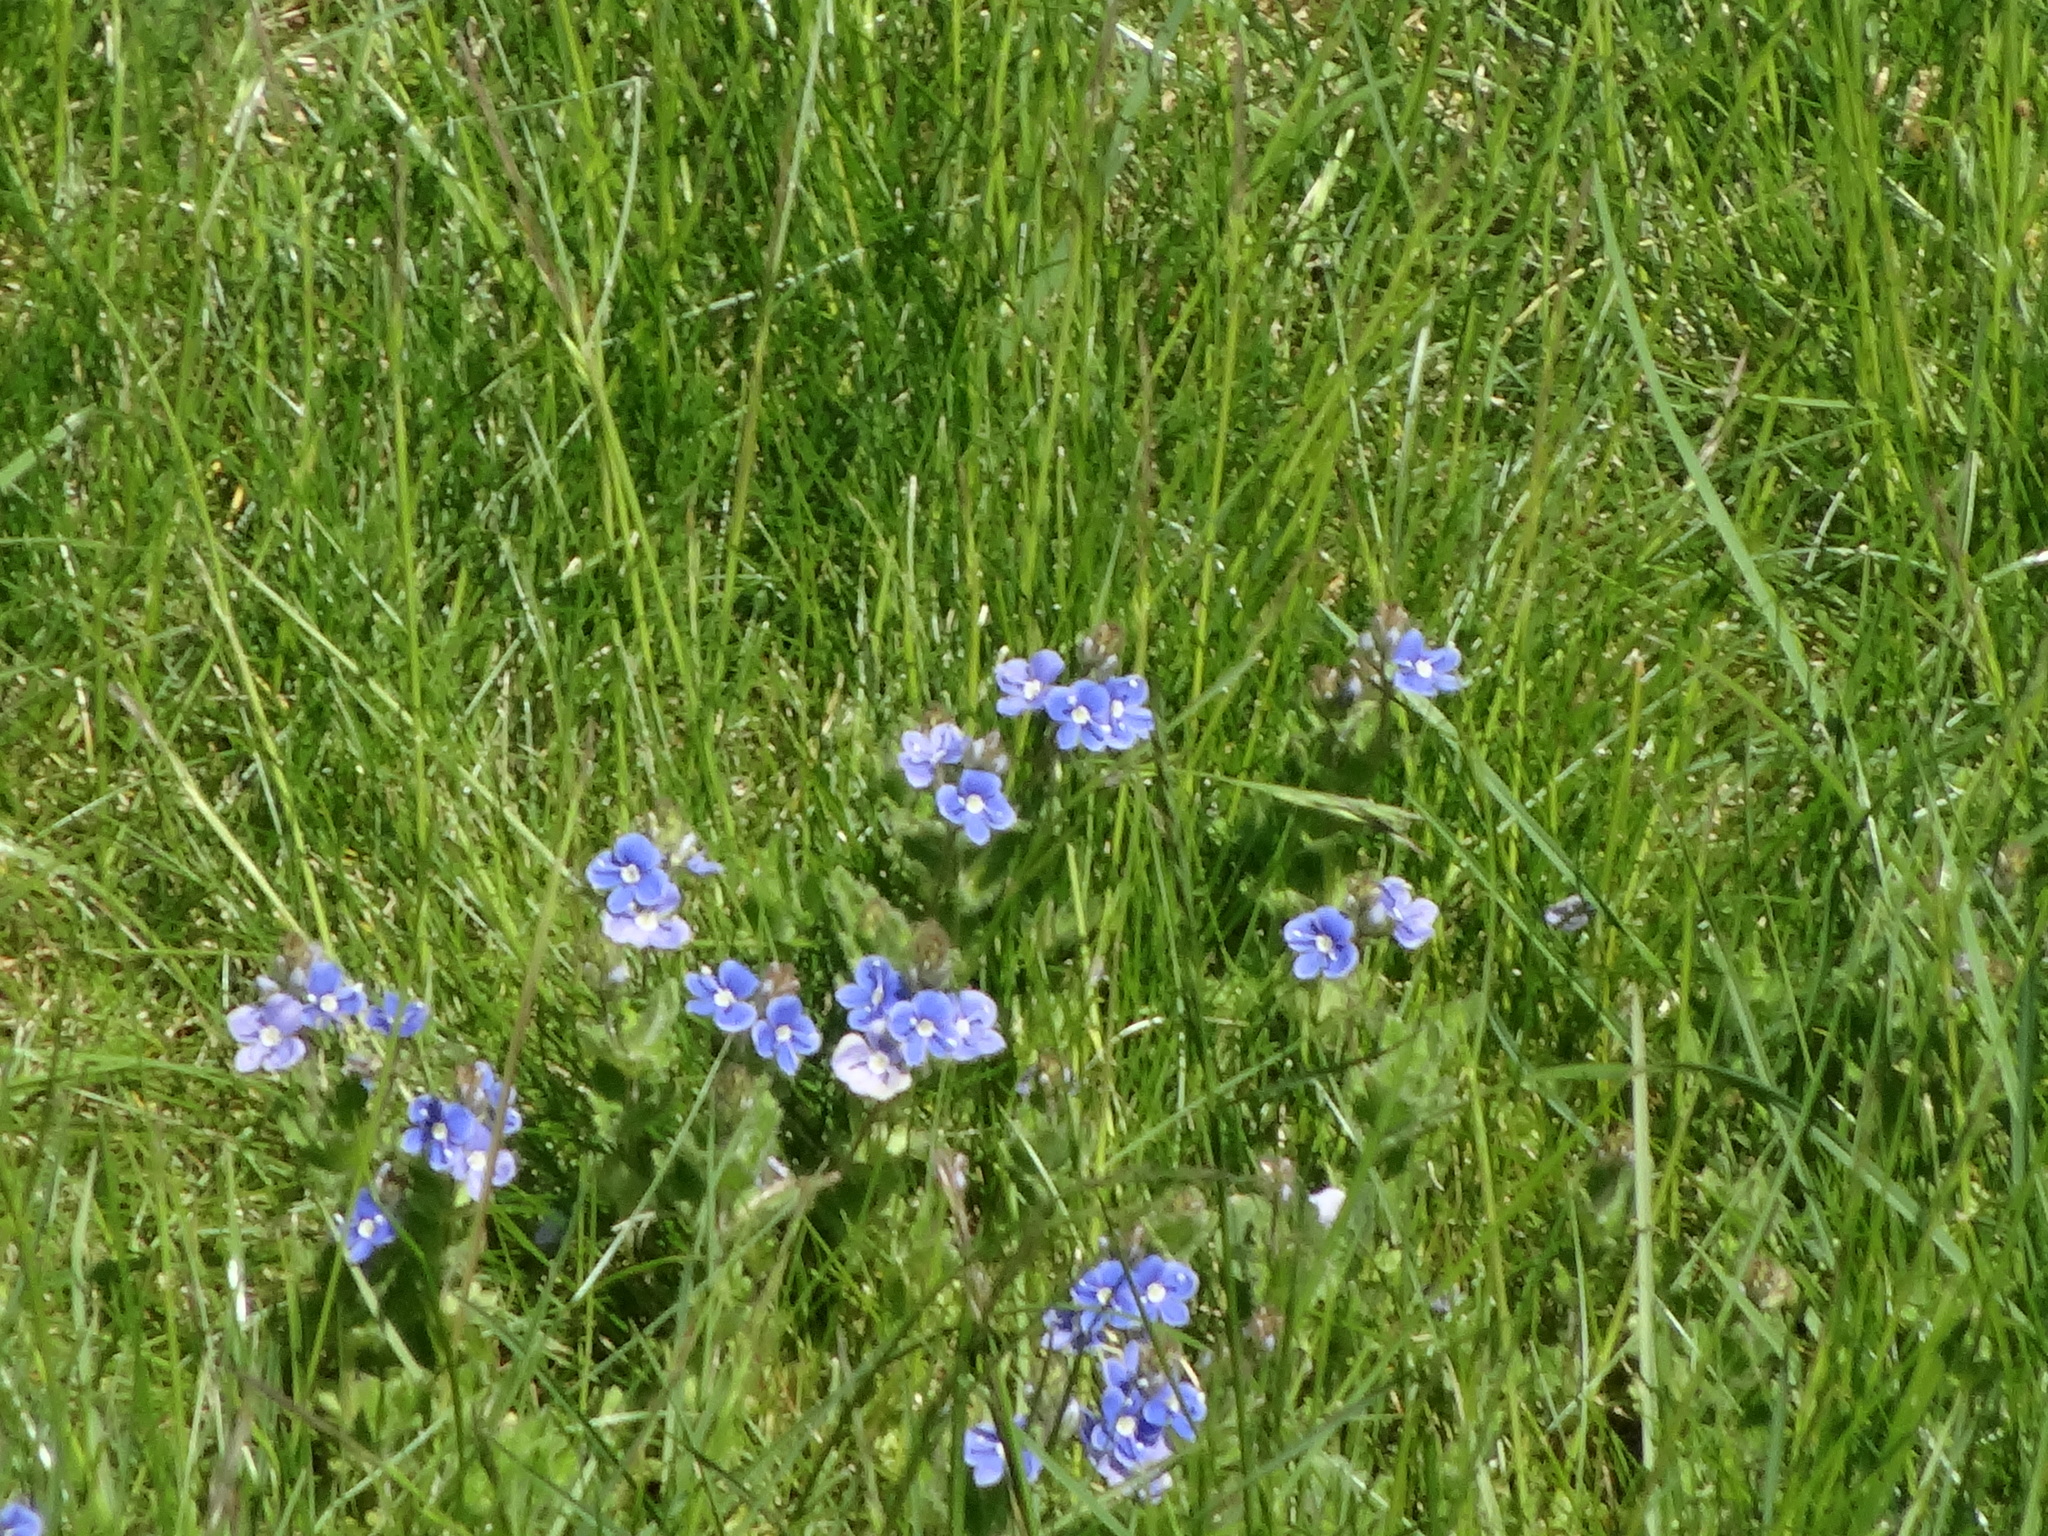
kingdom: Plantae
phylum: Tracheophyta
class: Magnoliopsida
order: Lamiales
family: Plantaginaceae
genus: Veronica
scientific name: Veronica chamaedrys
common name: Germander speedwell
